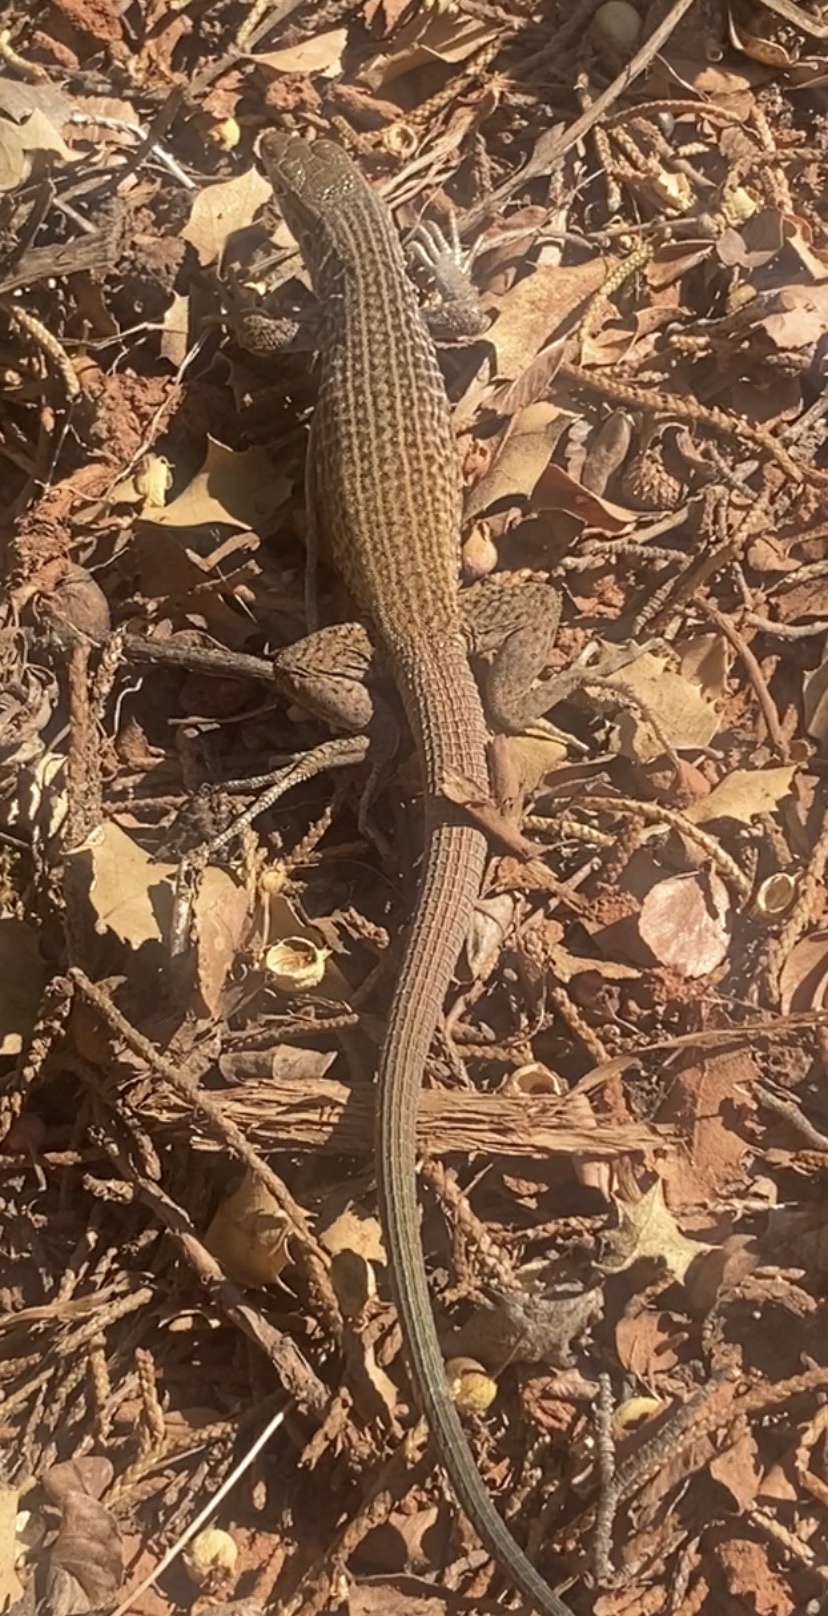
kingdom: Animalia
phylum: Chordata
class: Squamata
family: Teiidae
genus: Aspidoscelis
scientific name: Aspidoscelis tigris
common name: Tiger whiptail
